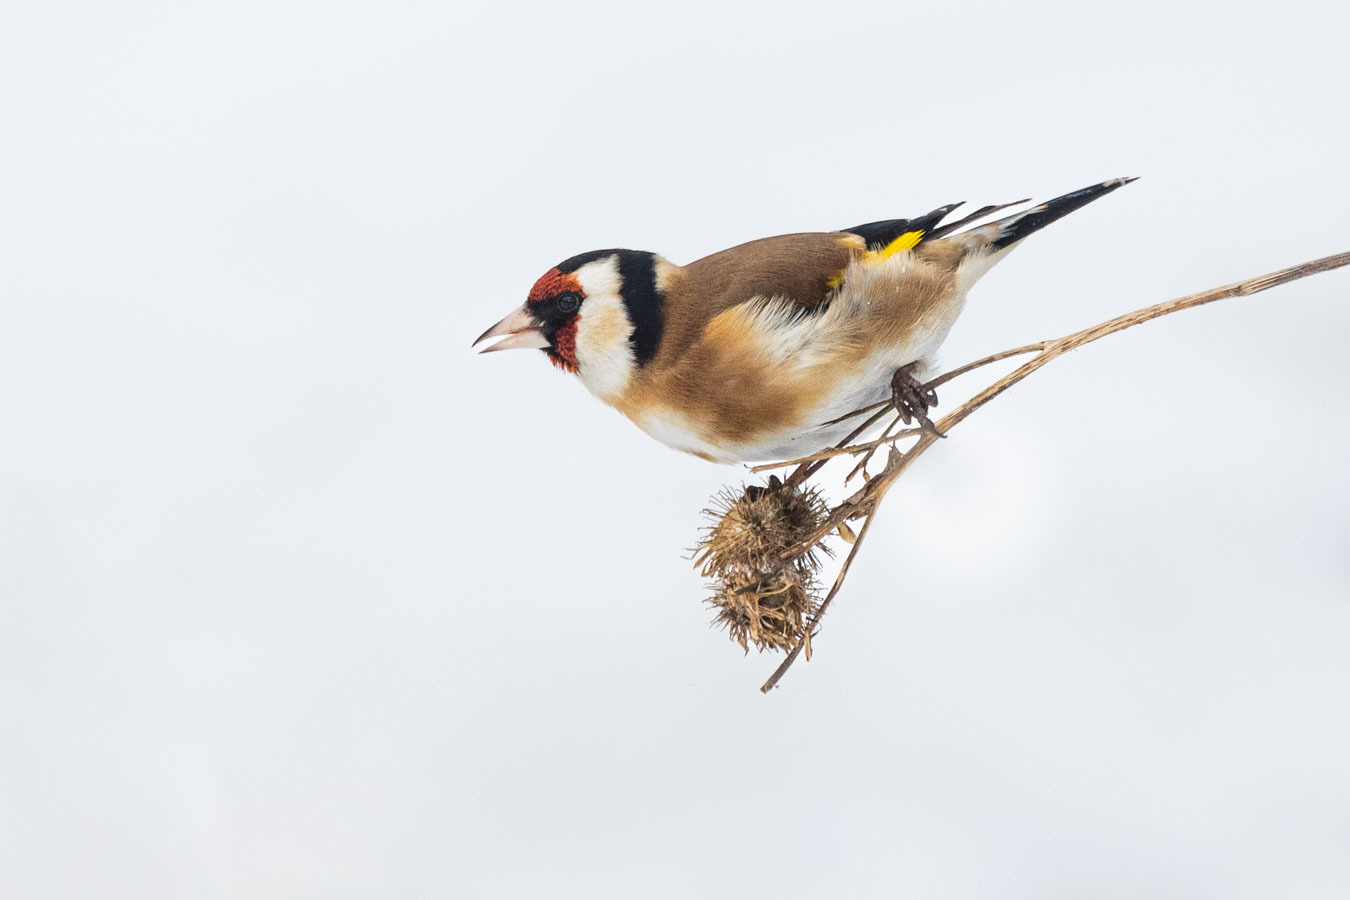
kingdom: Animalia
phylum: Chordata
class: Aves
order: Passeriformes
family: Fringillidae
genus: Carduelis
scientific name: Carduelis carduelis
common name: European goldfinch
